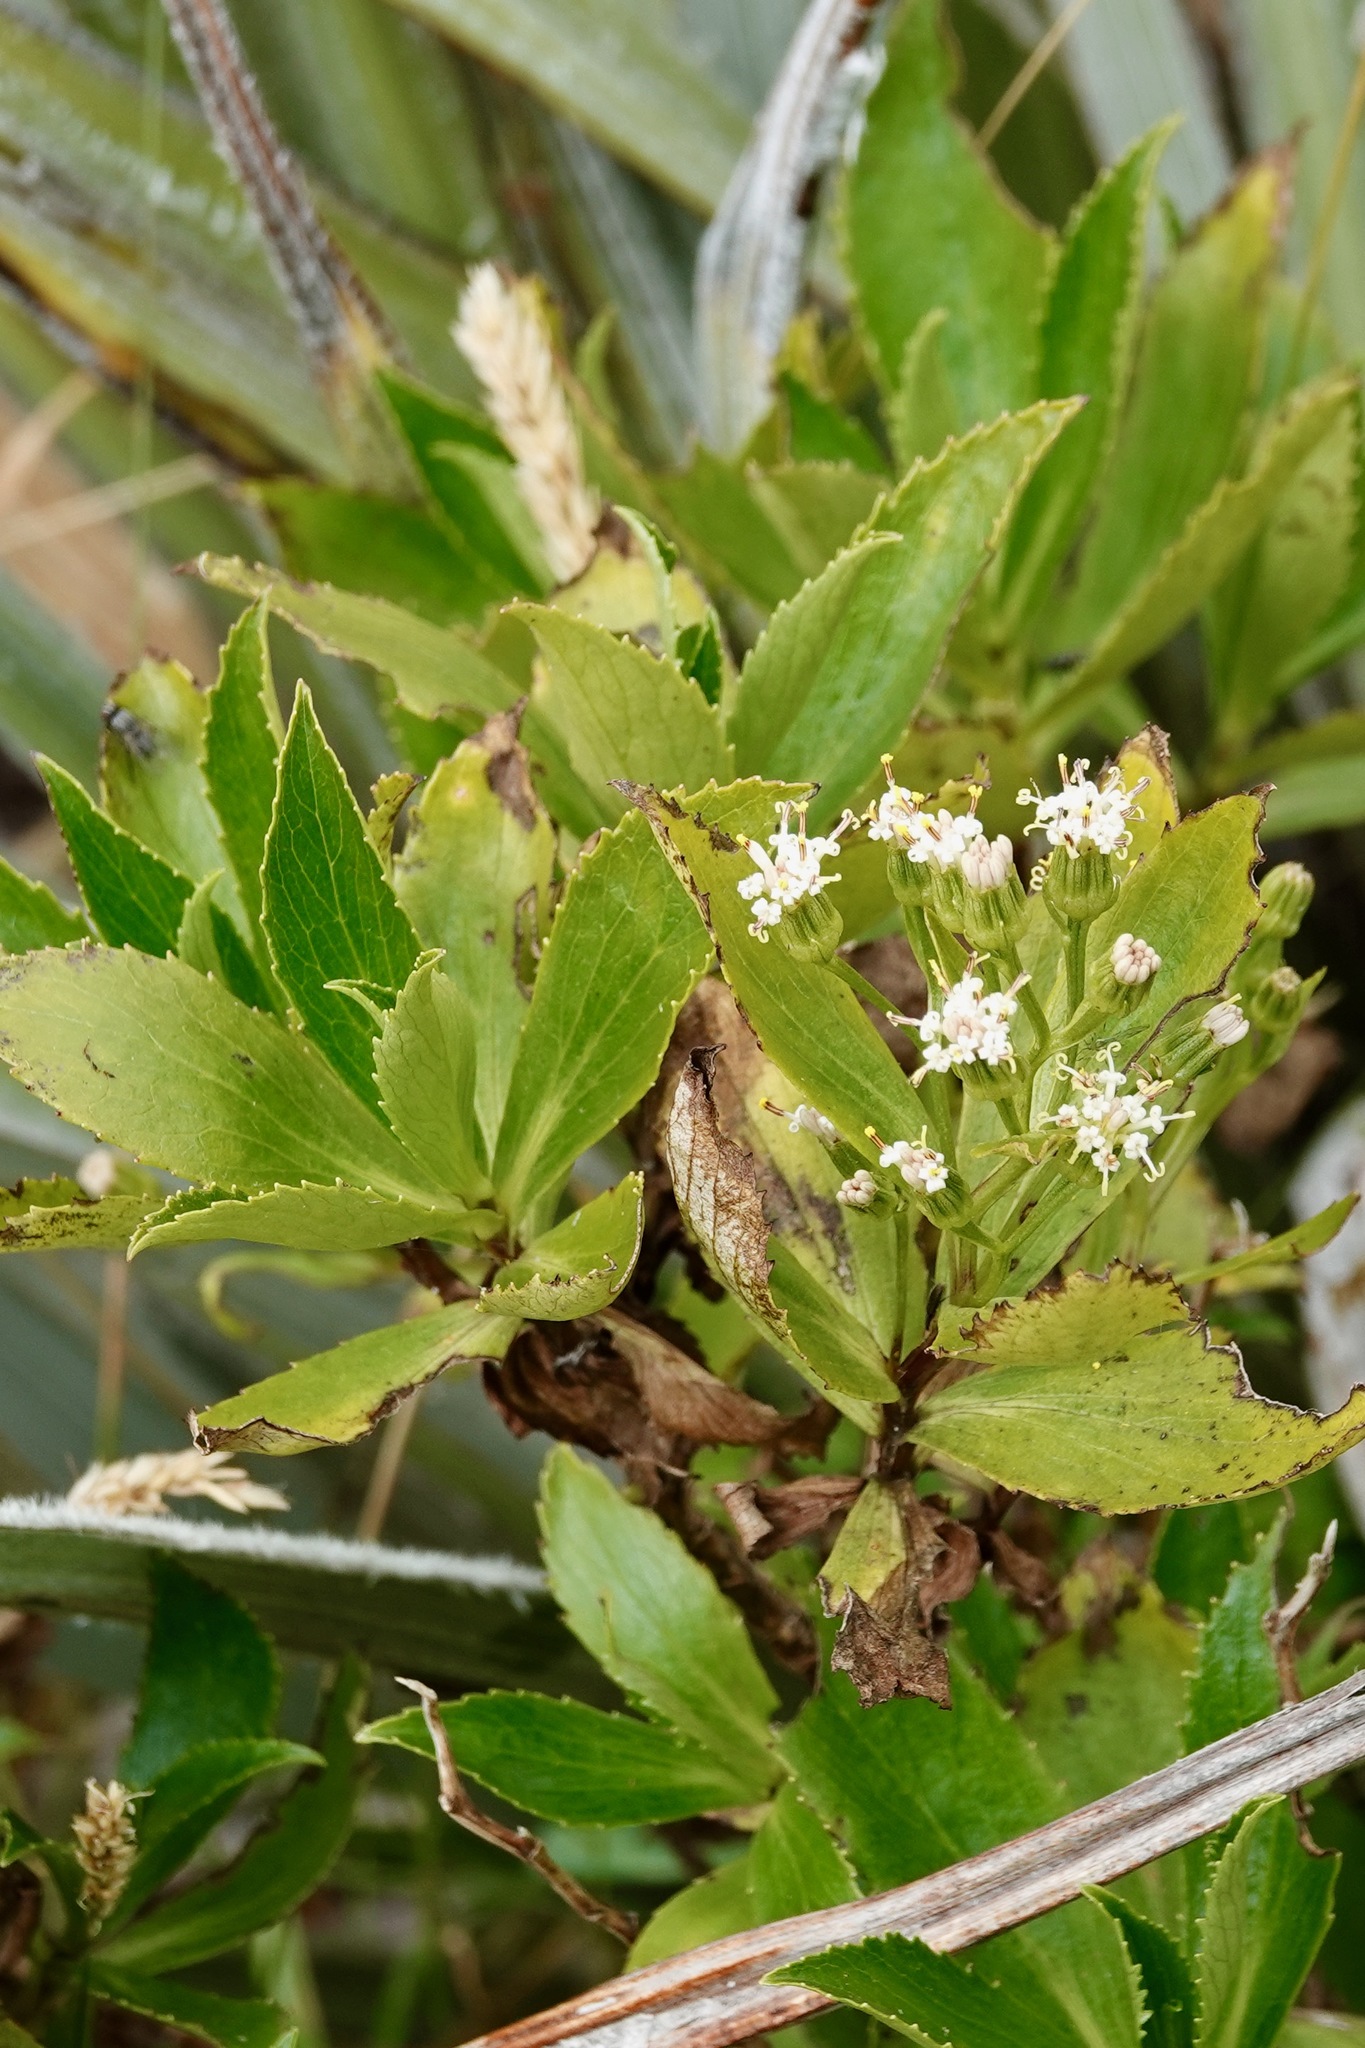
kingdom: Plantae
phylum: Tracheophyta
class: Magnoliopsida
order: Asterales
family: Asteraceae
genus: Traversia
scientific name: Traversia baccharoides
